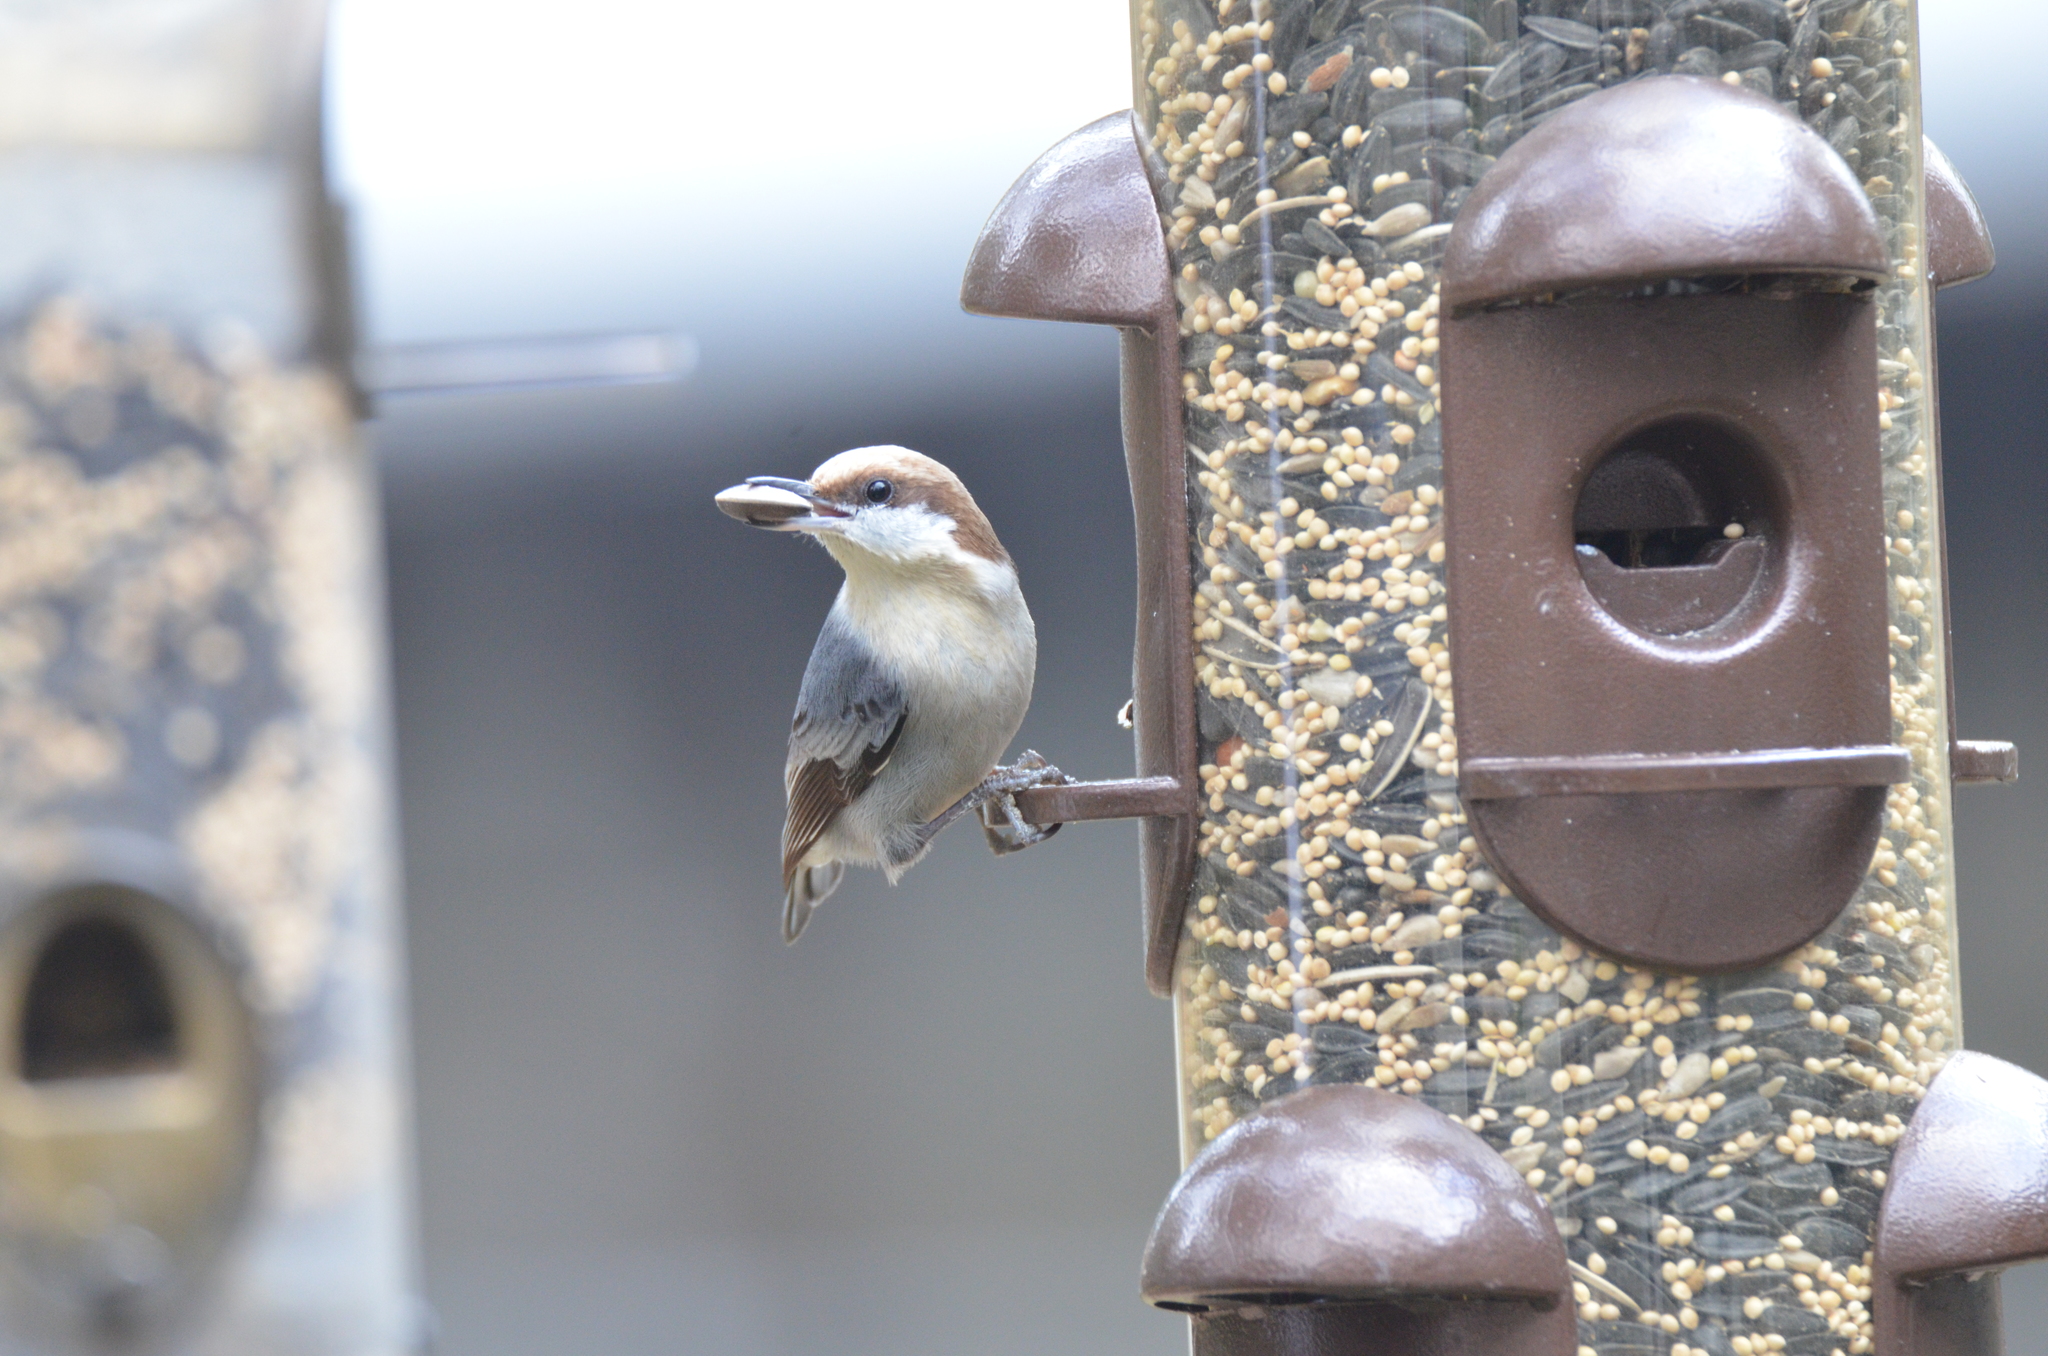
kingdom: Animalia
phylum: Chordata
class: Aves
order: Passeriformes
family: Sittidae
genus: Sitta
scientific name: Sitta pusilla
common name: Brown-headed nuthatch
